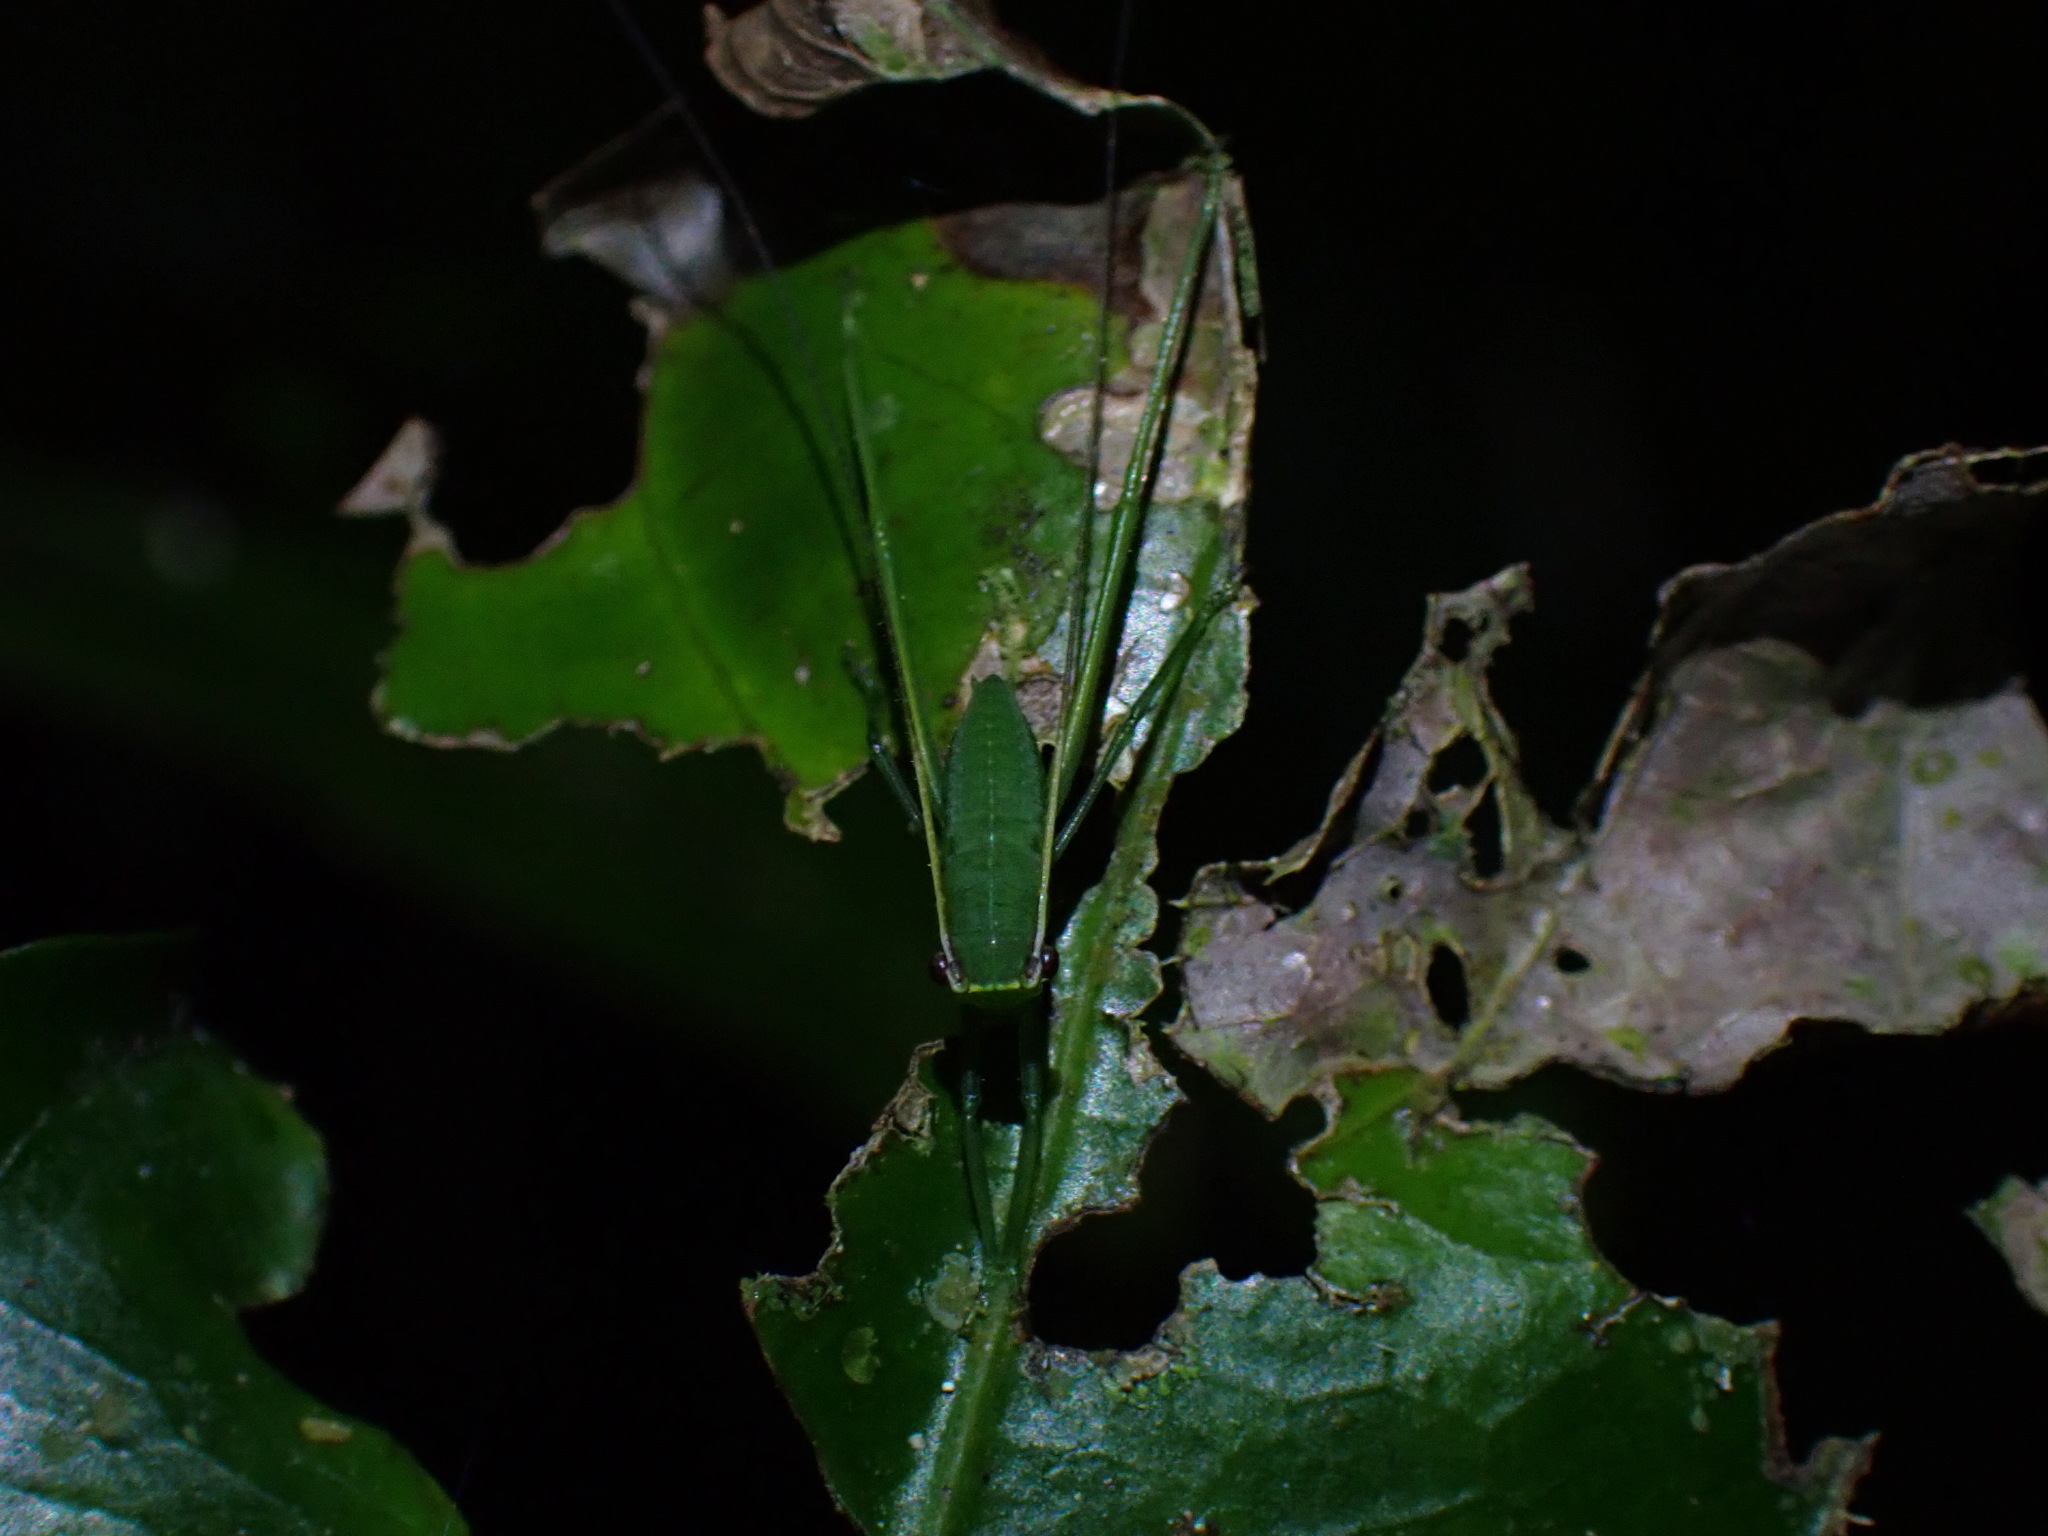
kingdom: Animalia
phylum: Arthropoda
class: Insecta
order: Orthoptera
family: Tettigoniidae
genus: Phyllophorella
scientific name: Phyllophorella queenslandica
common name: Queensland small hooded katydid
